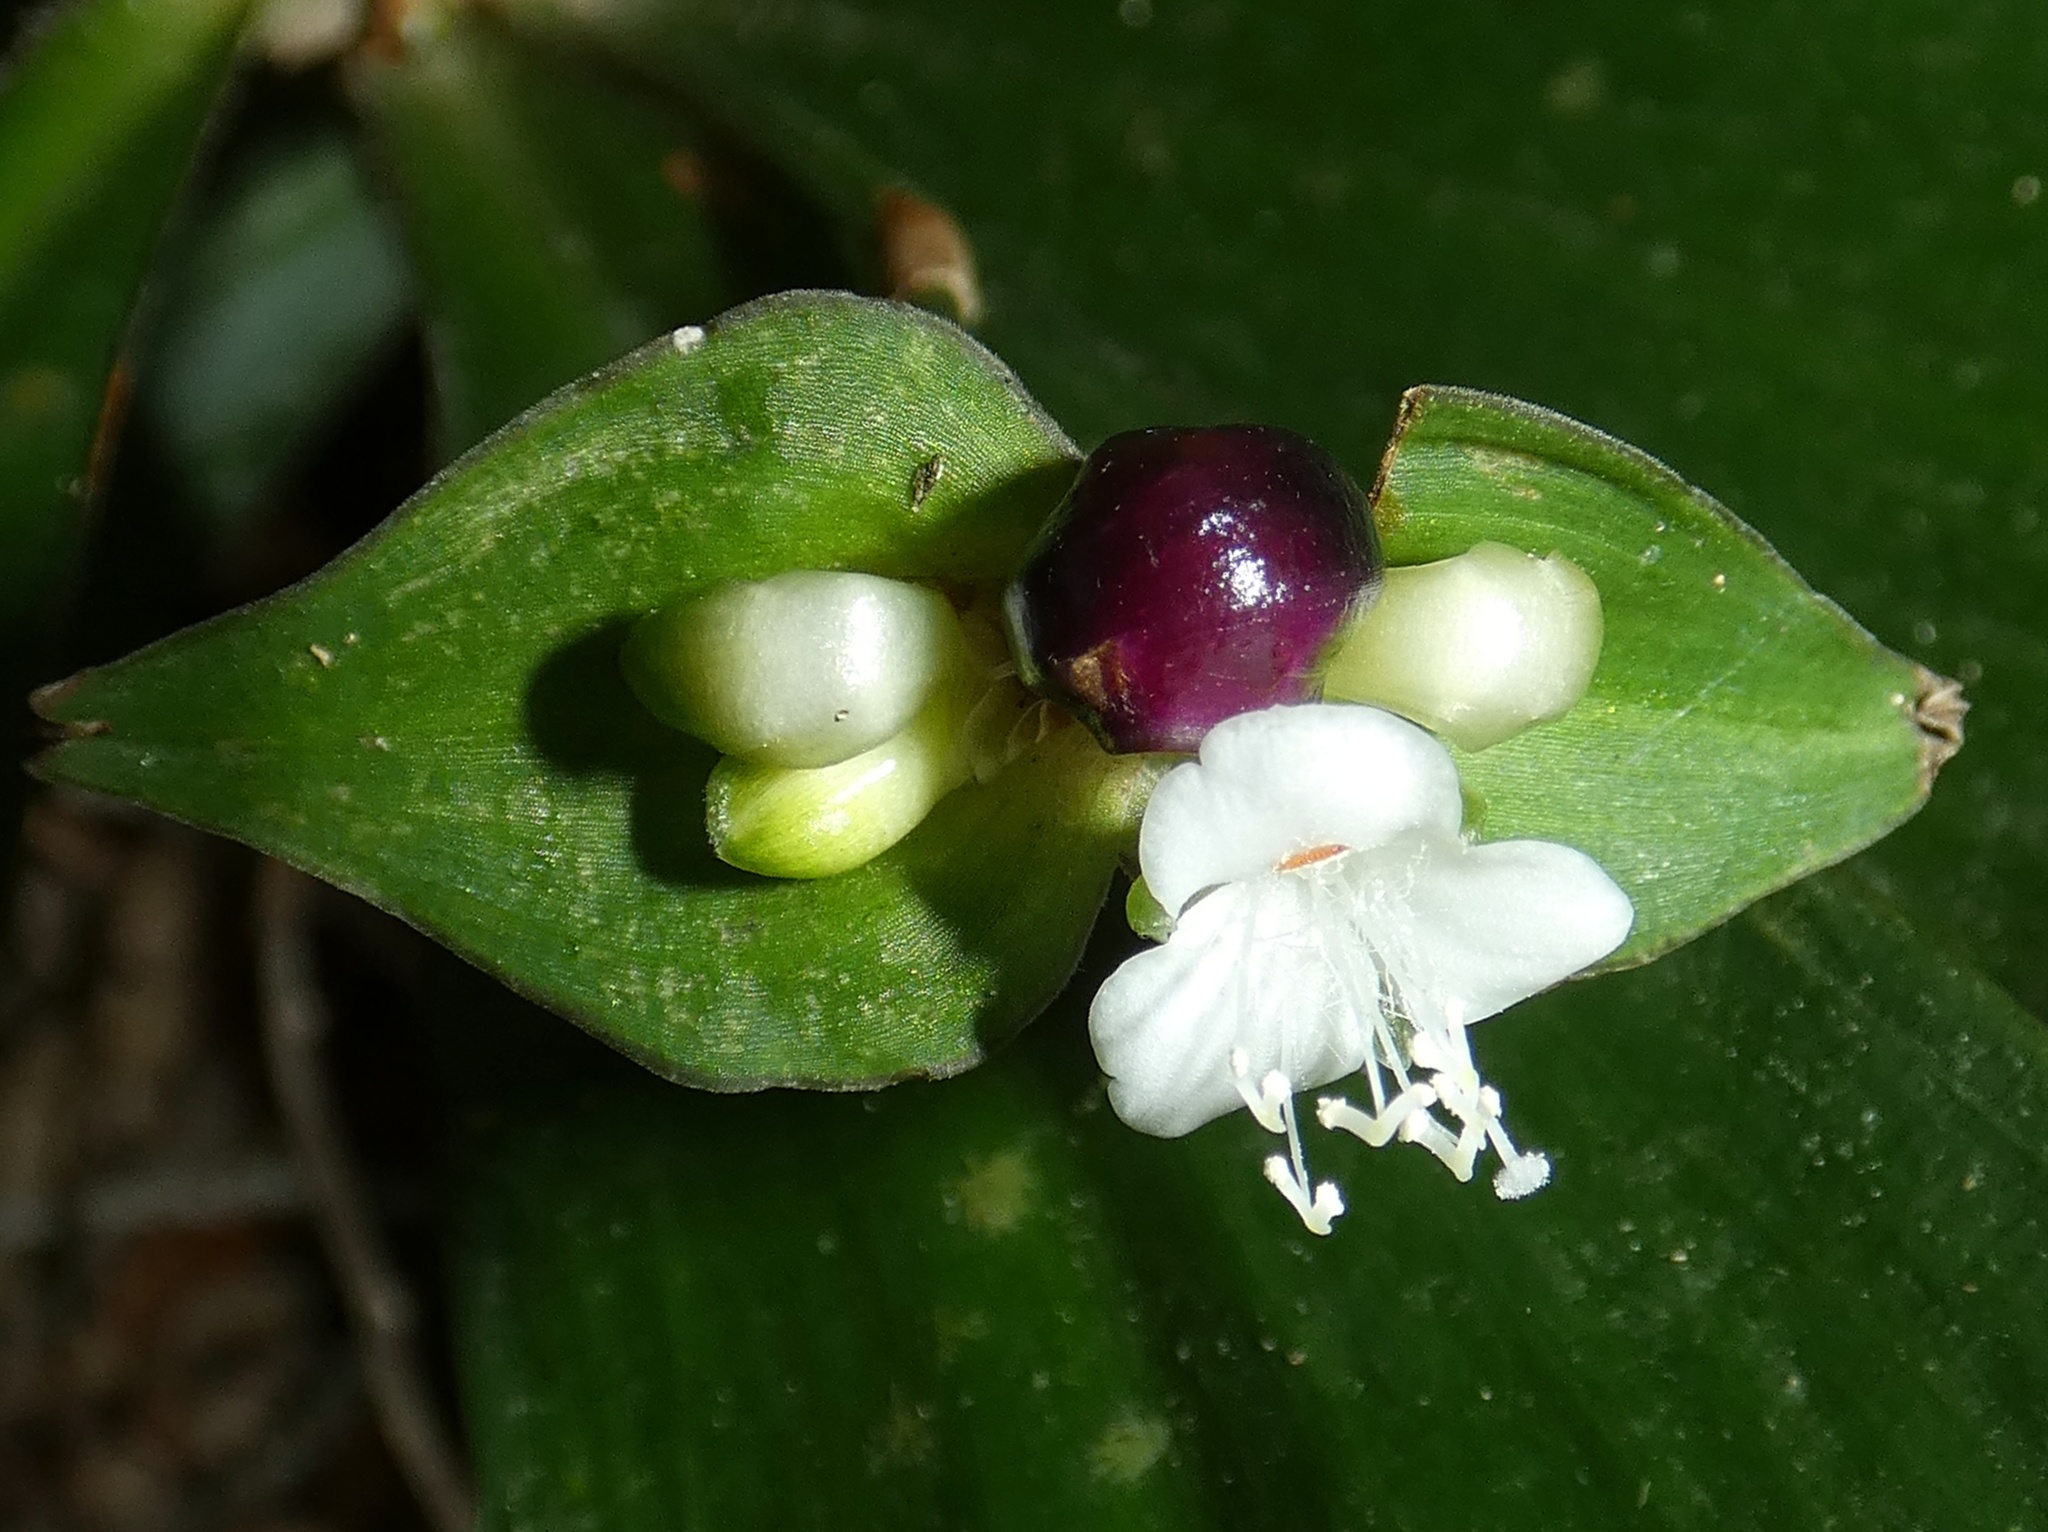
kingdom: Plantae
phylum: Tracheophyta
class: Liliopsida
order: Commelinales
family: Commelinaceae
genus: Tradescantia
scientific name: Tradescantia zanonia
